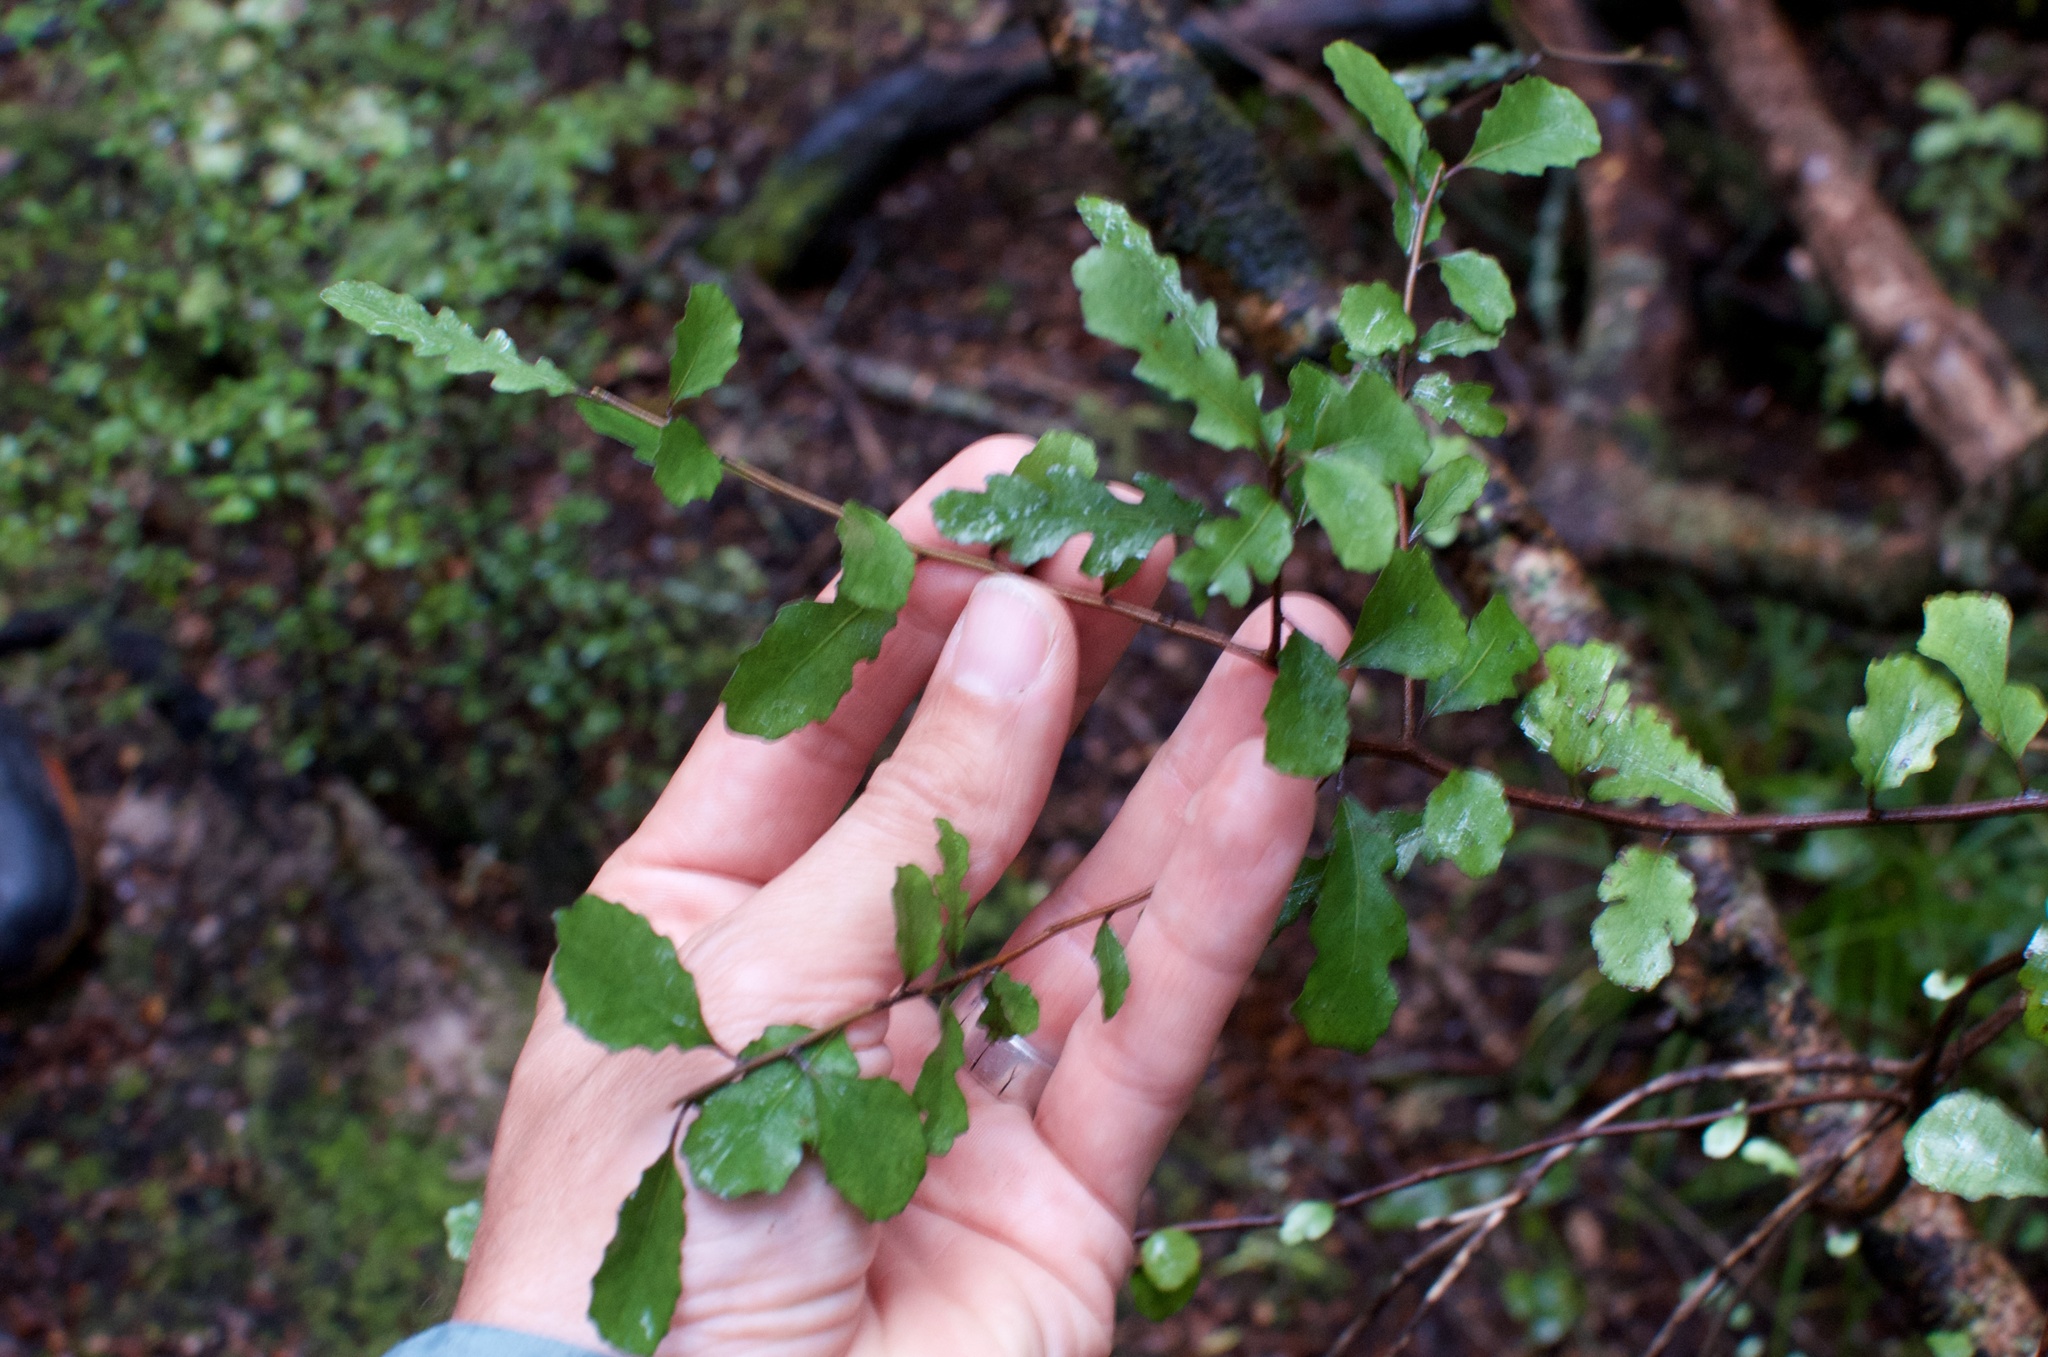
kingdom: Plantae
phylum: Tracheophyta
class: Magnoliopsida
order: Oxalidales
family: Elaeocarpaceae
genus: Elaeocarpus
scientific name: Elaeocarpus hookerianus
